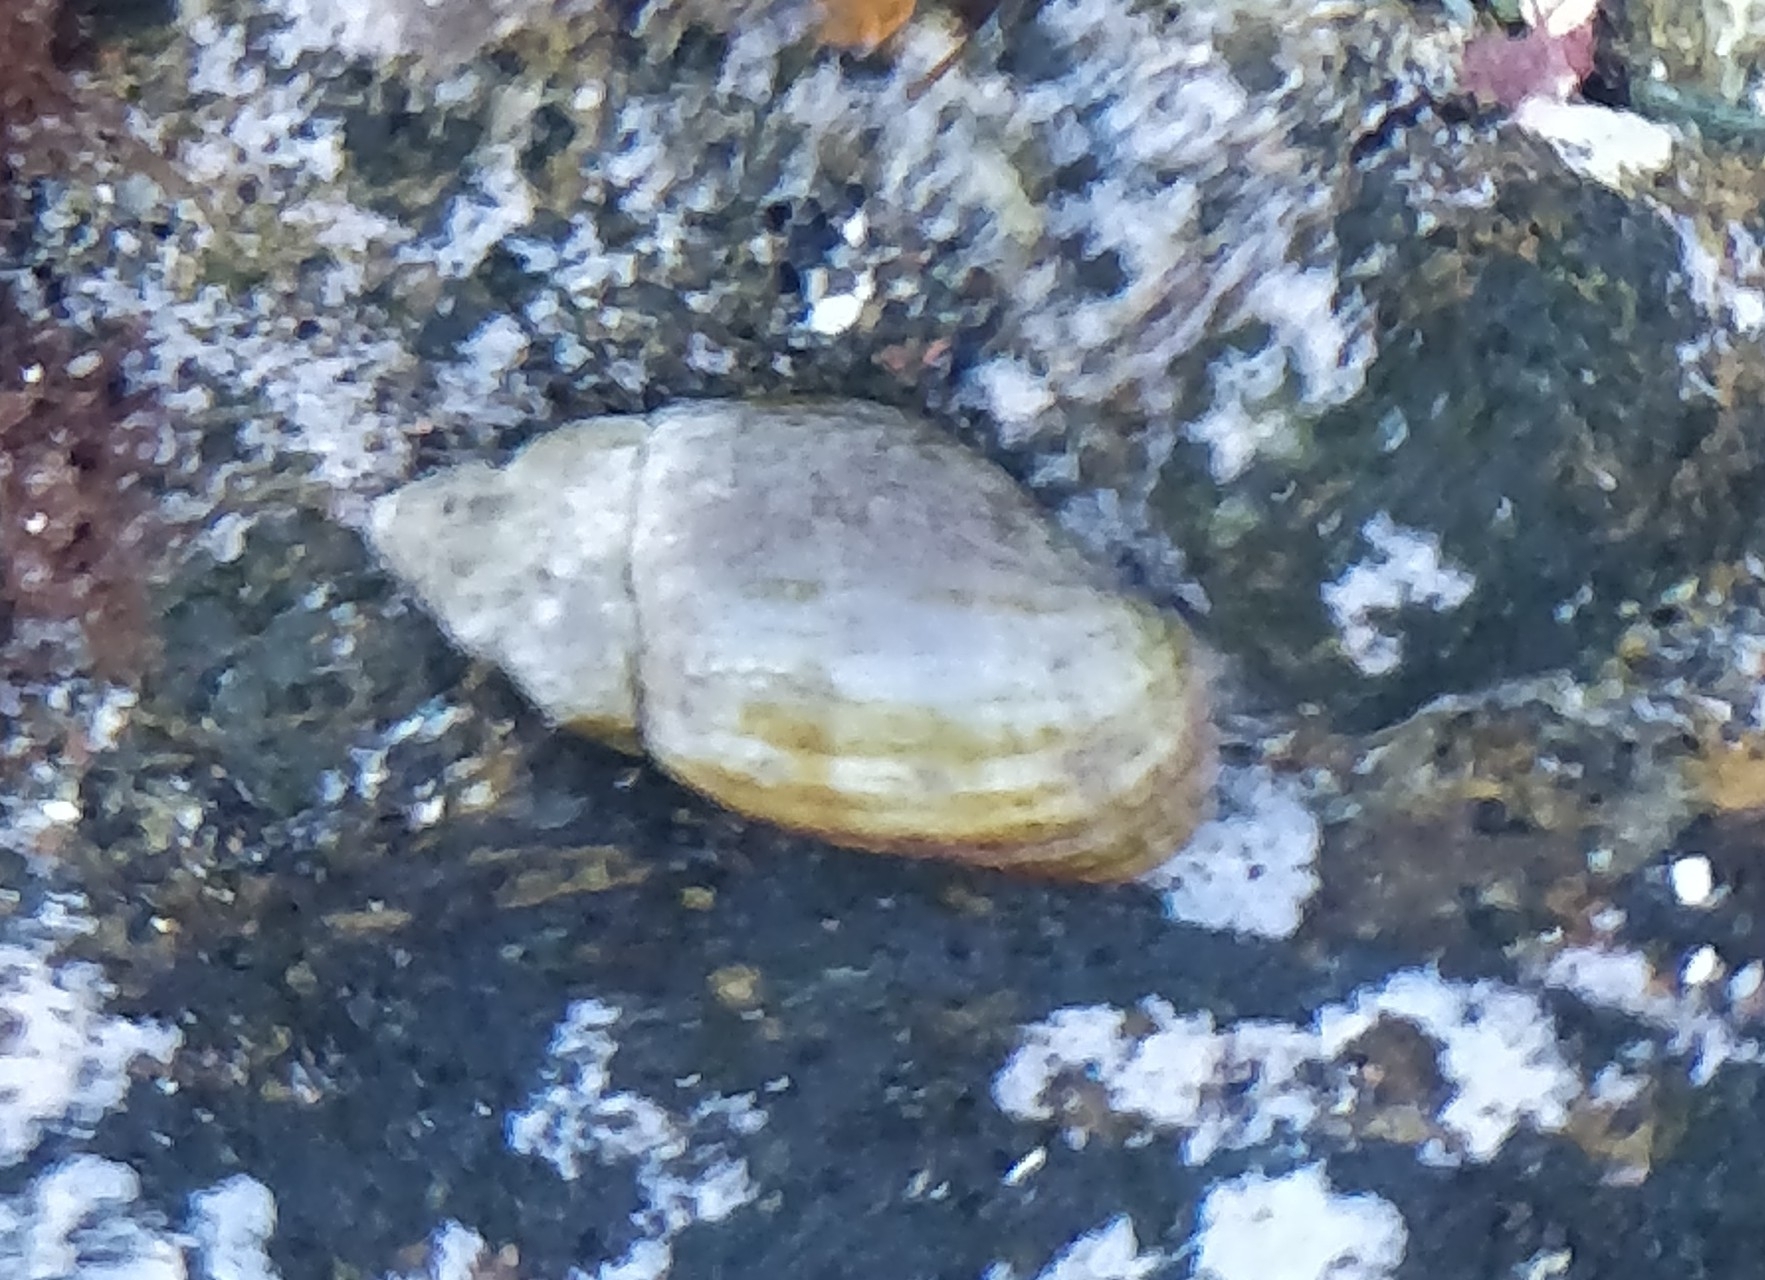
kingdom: Animalia
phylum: Mollusca
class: Gastropoda
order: Neogastropoda
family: Mitridae
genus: Isara
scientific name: Isara cornea
